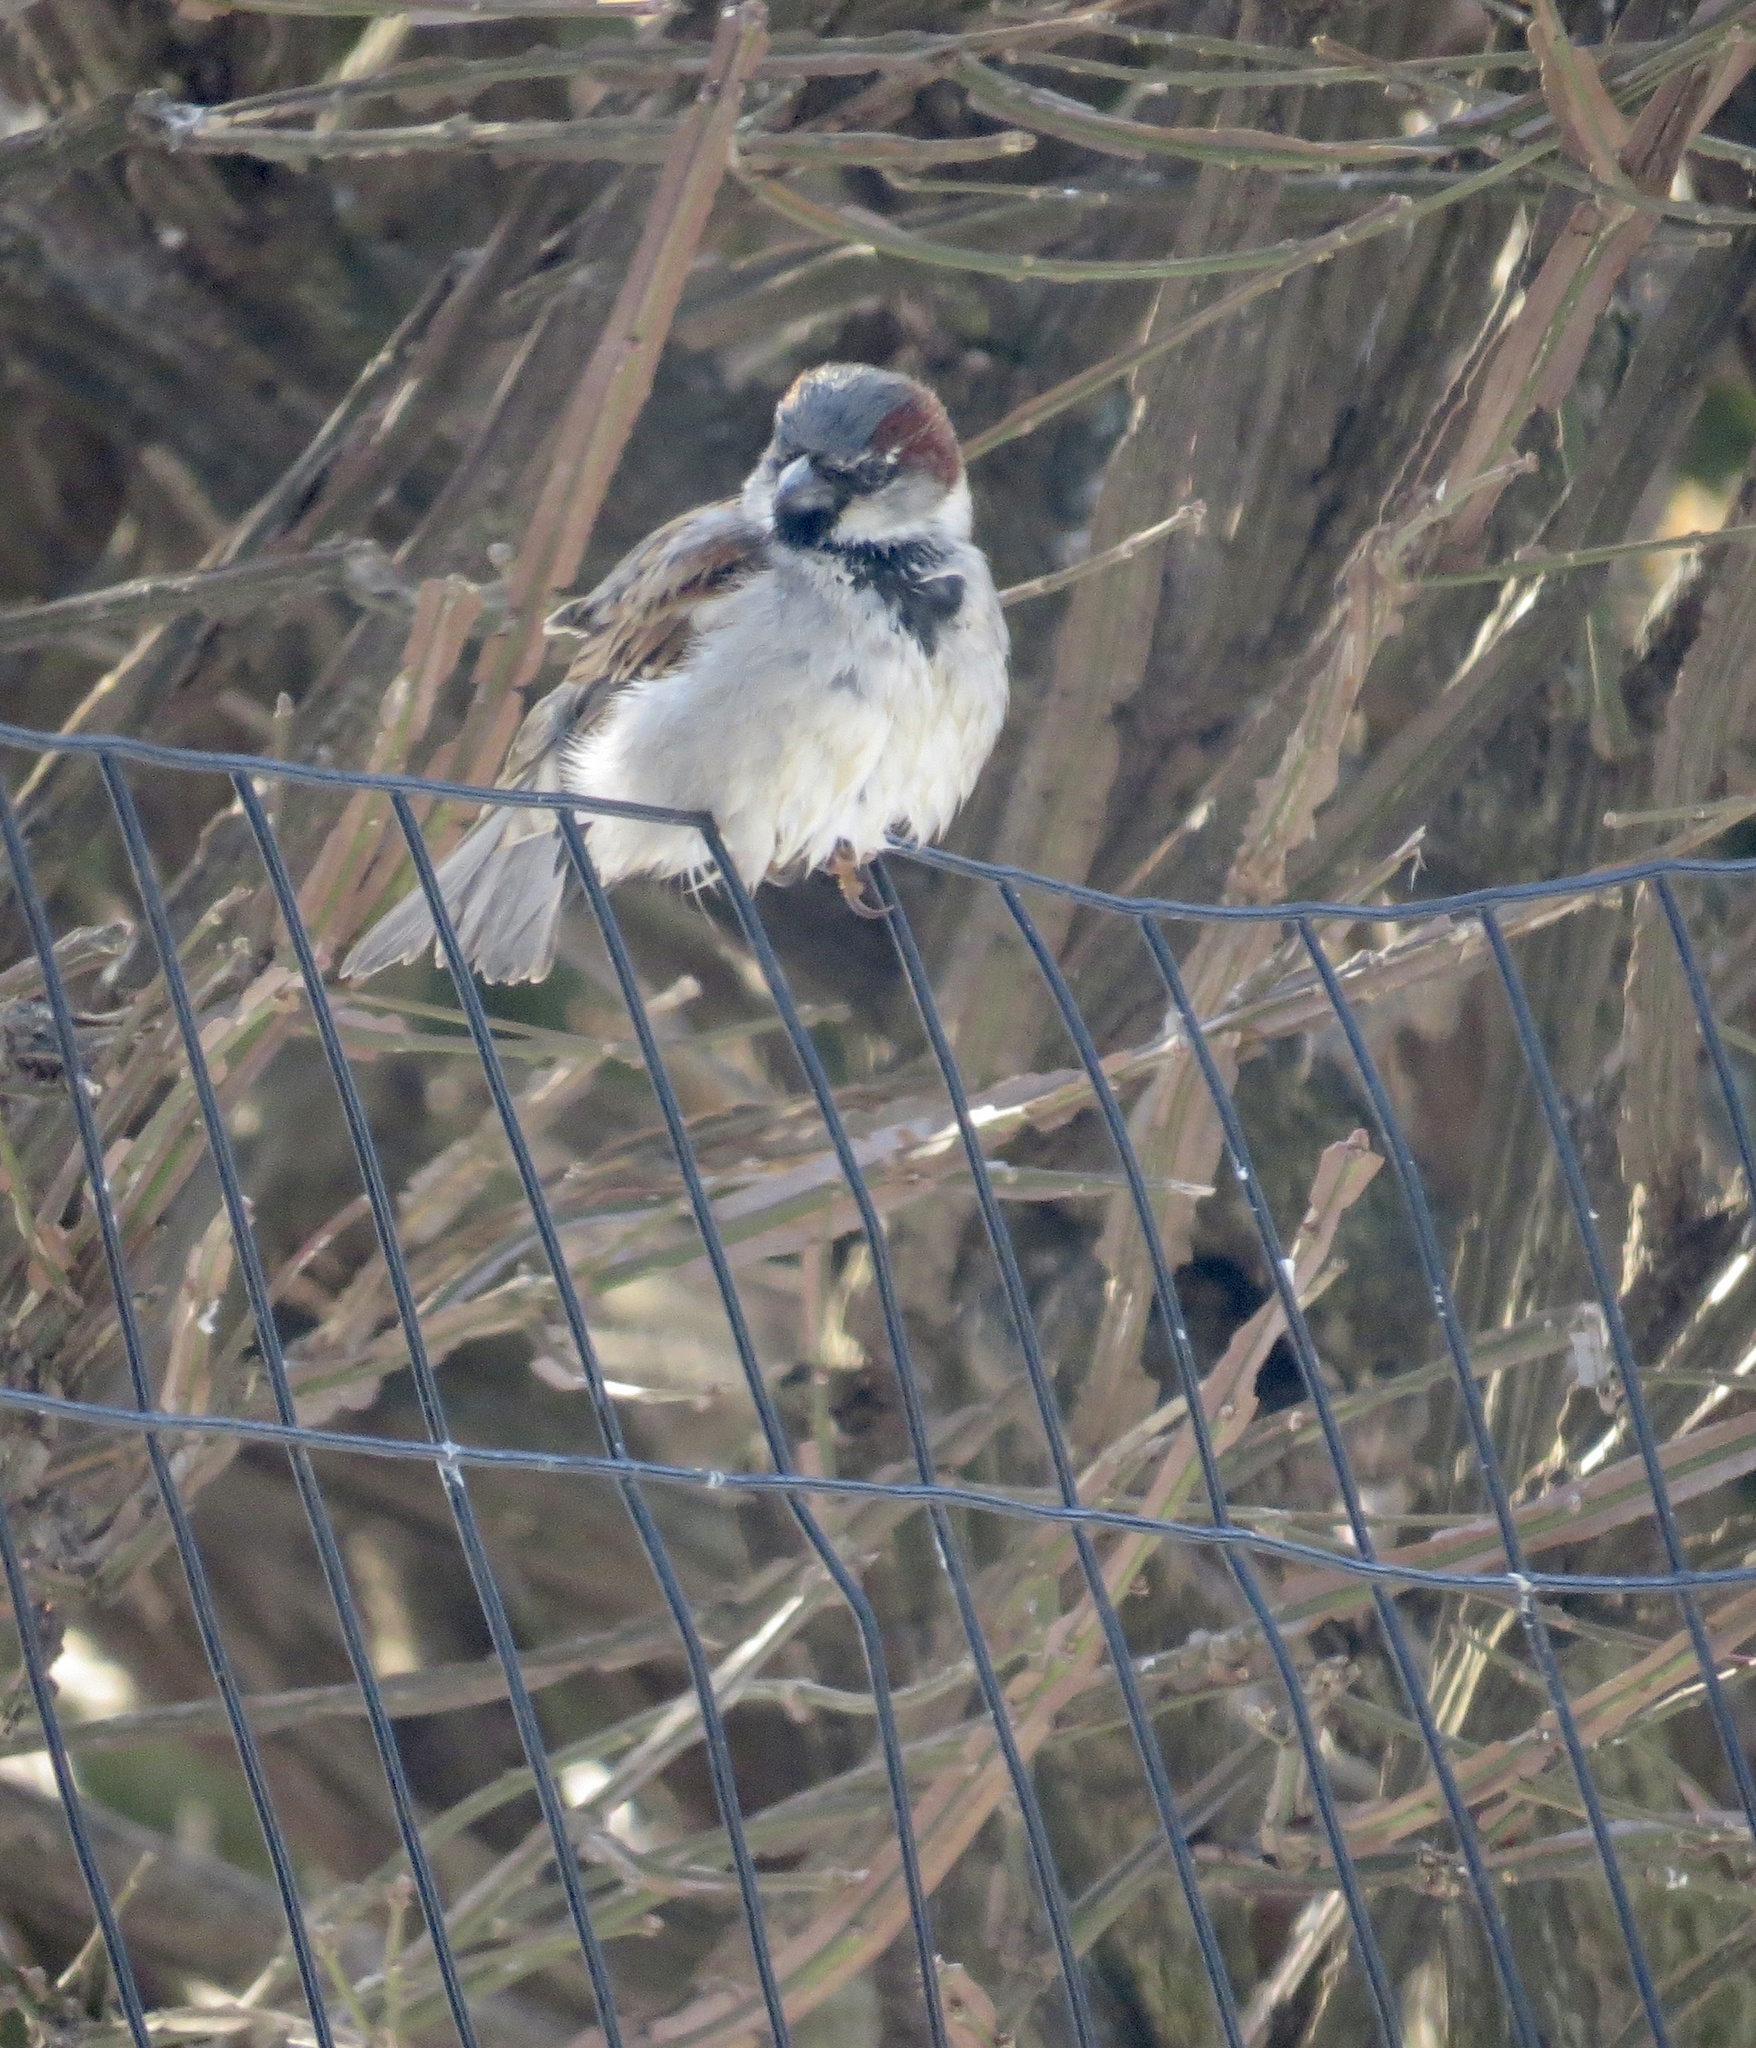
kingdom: Animalia
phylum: Chordata
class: Aves
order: Passeriformes
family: Passeridae
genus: Passer
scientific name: Passer domesticus
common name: House sparrow
